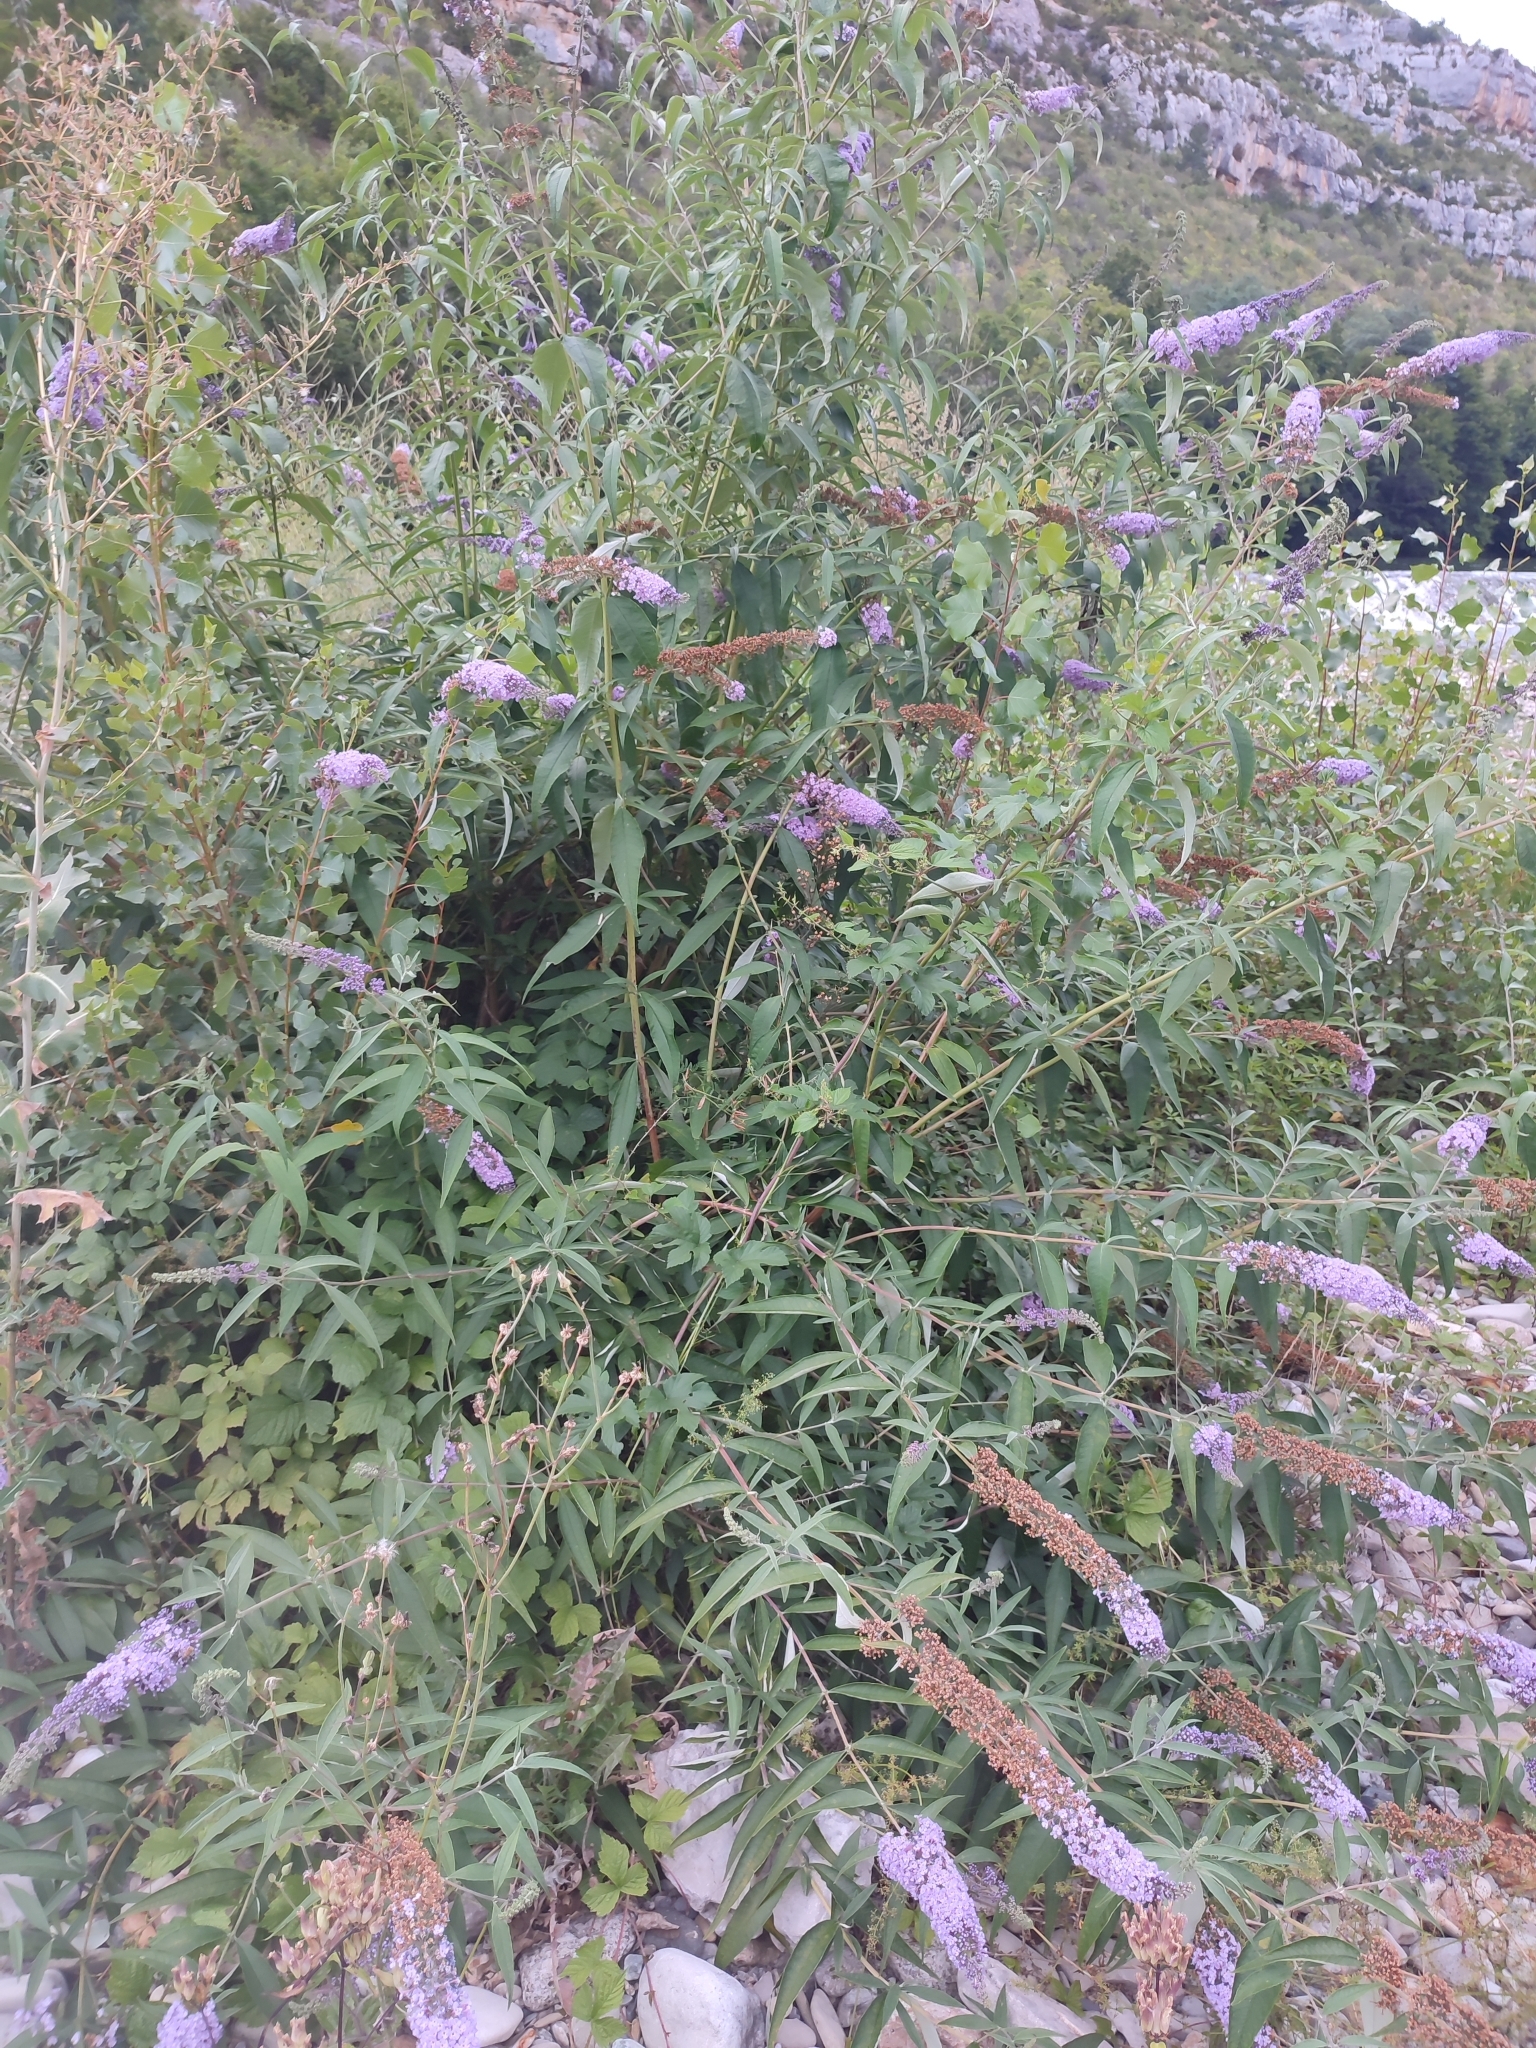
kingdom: Plantae
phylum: Tracheophyta
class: Magnoliopsida
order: Lamiales
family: Scrophulariaceae
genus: Buddleja
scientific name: Buddleja davidii
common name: Butterfly-bush
